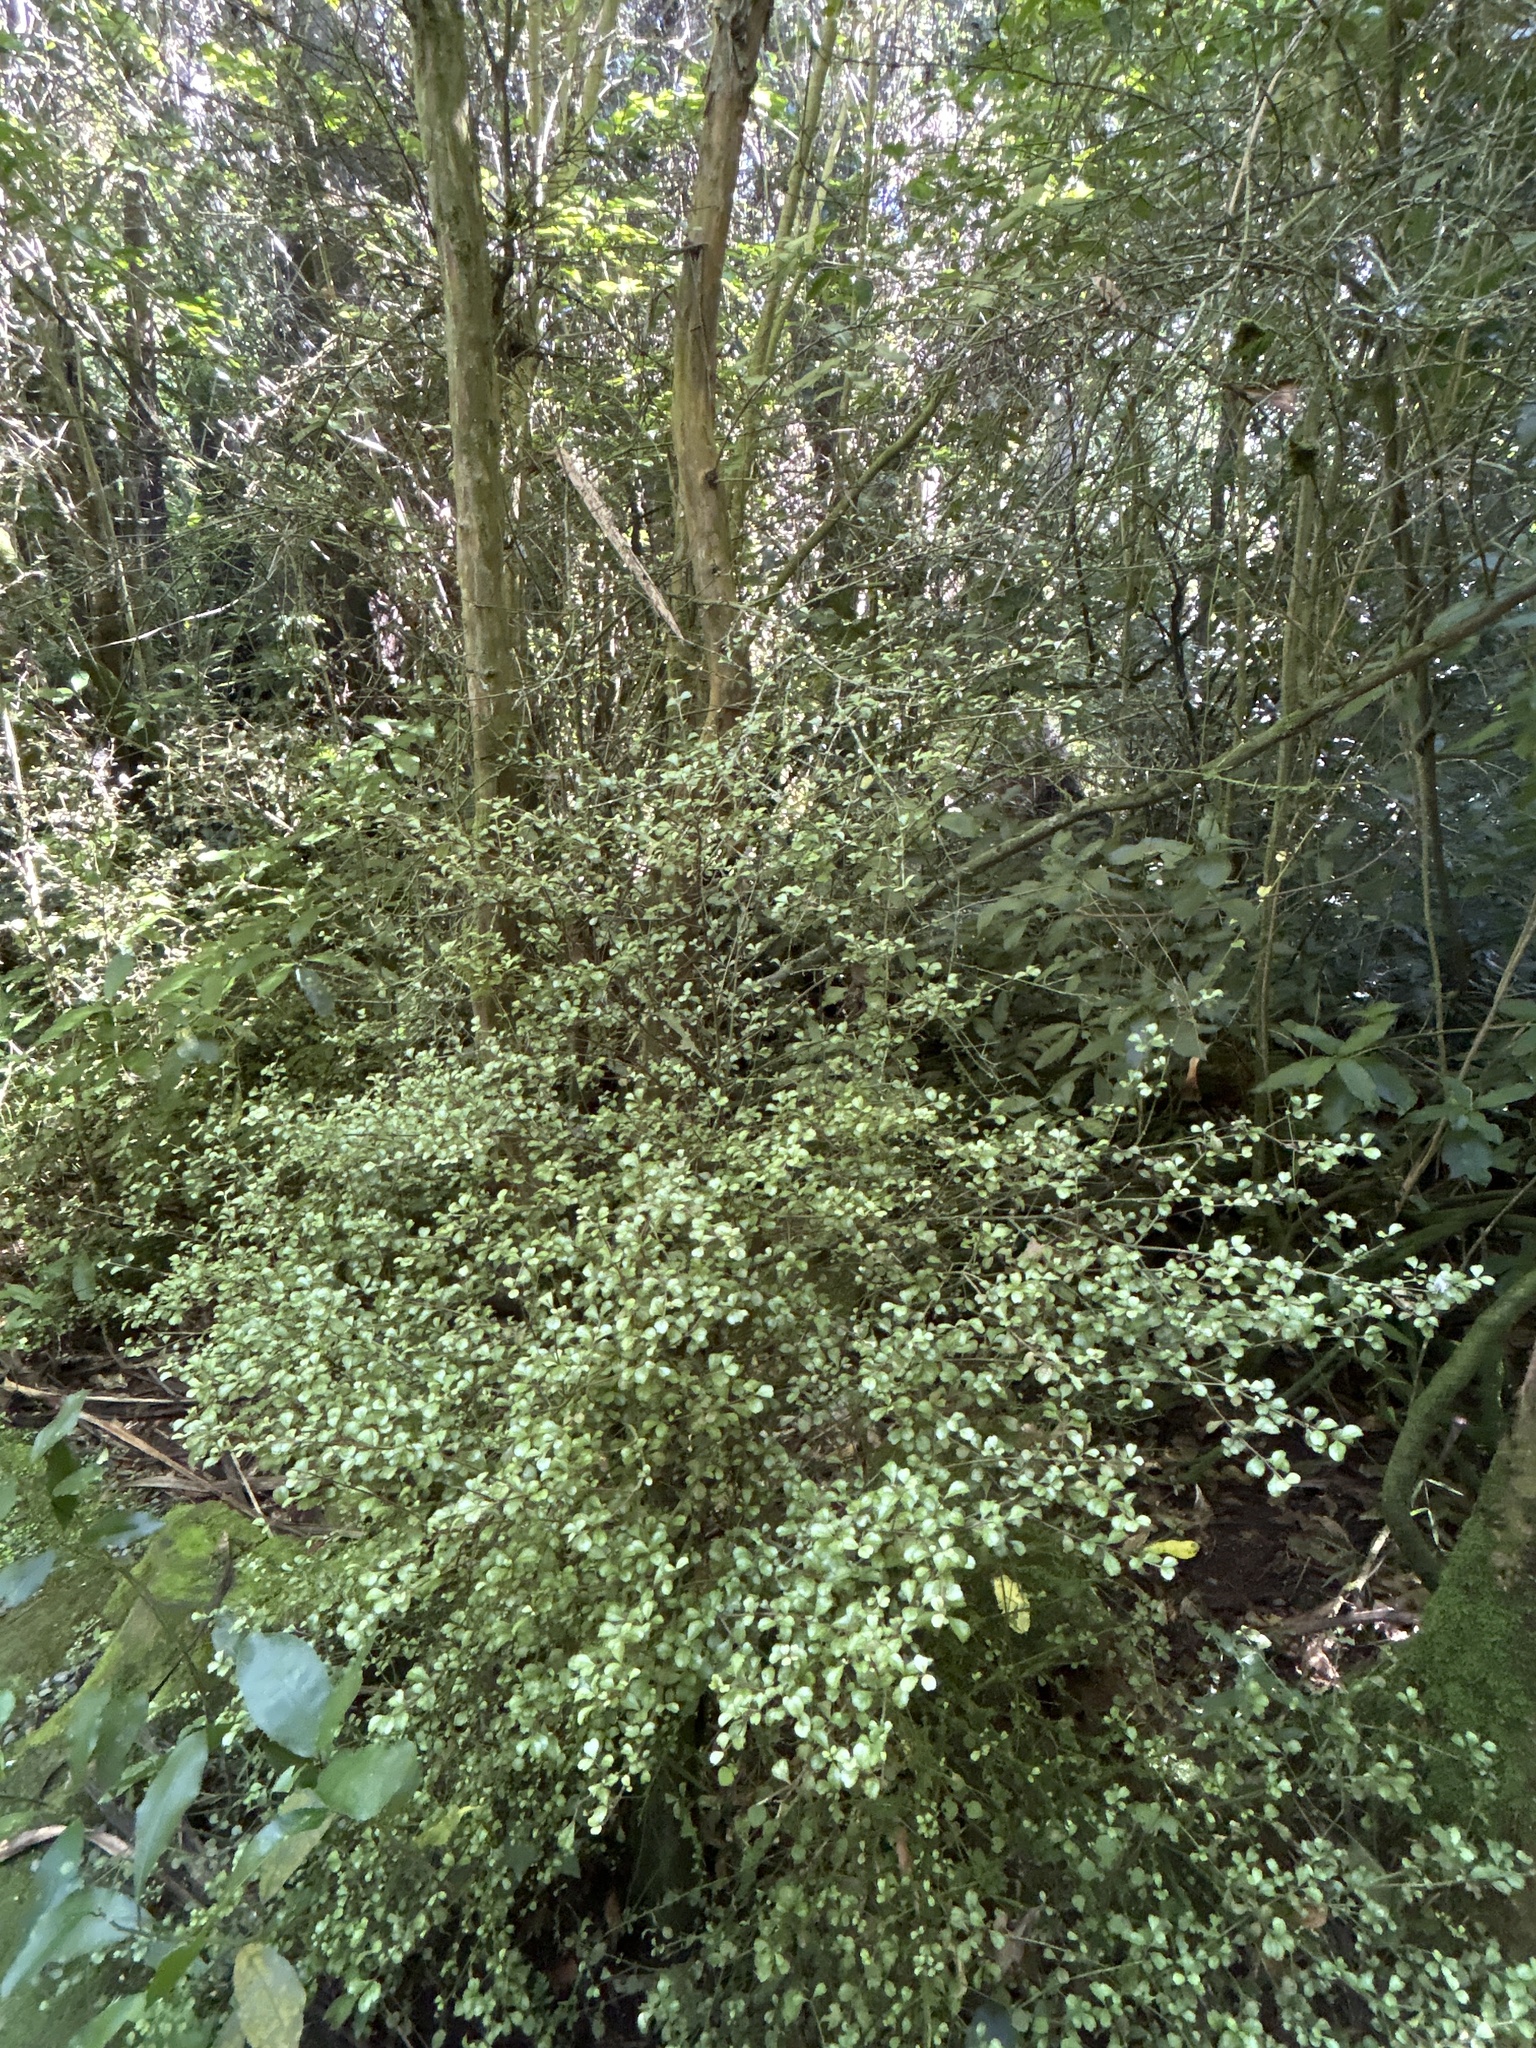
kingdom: Plantae
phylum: Tracheophyta
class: Magnoliopsida
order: Myrtales
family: Myrtaceae
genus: Lophomyrtus
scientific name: Lophomyrtus obcordata
